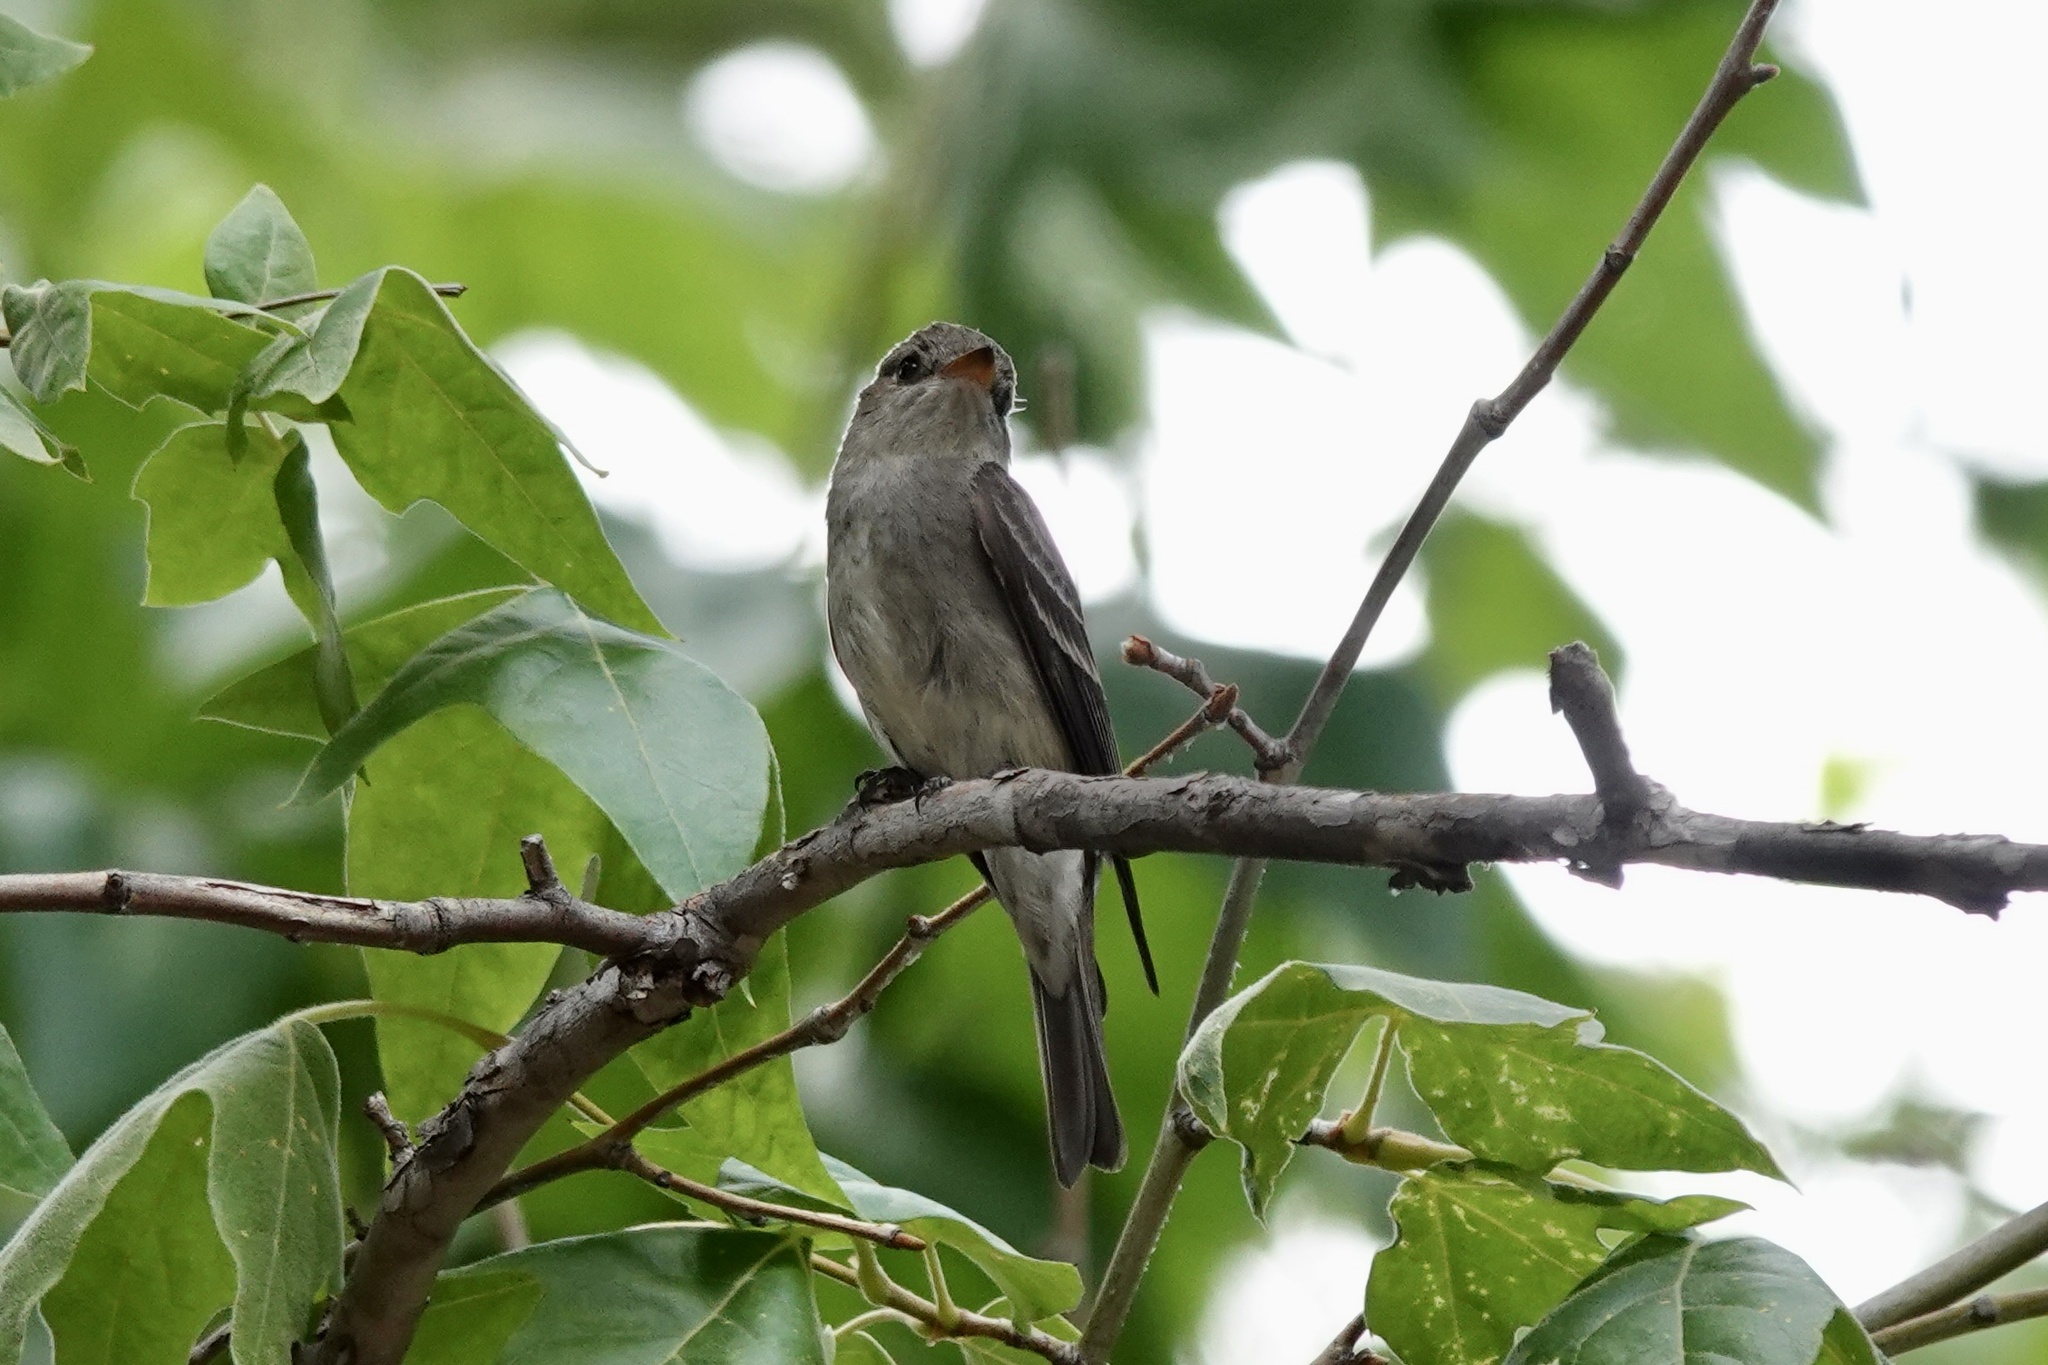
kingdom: Animalia
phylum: Chordata
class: Aves
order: Passeriformes
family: Tyrannidae
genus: Contopus
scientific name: Contopus sordidulus
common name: Western wood-pewee
